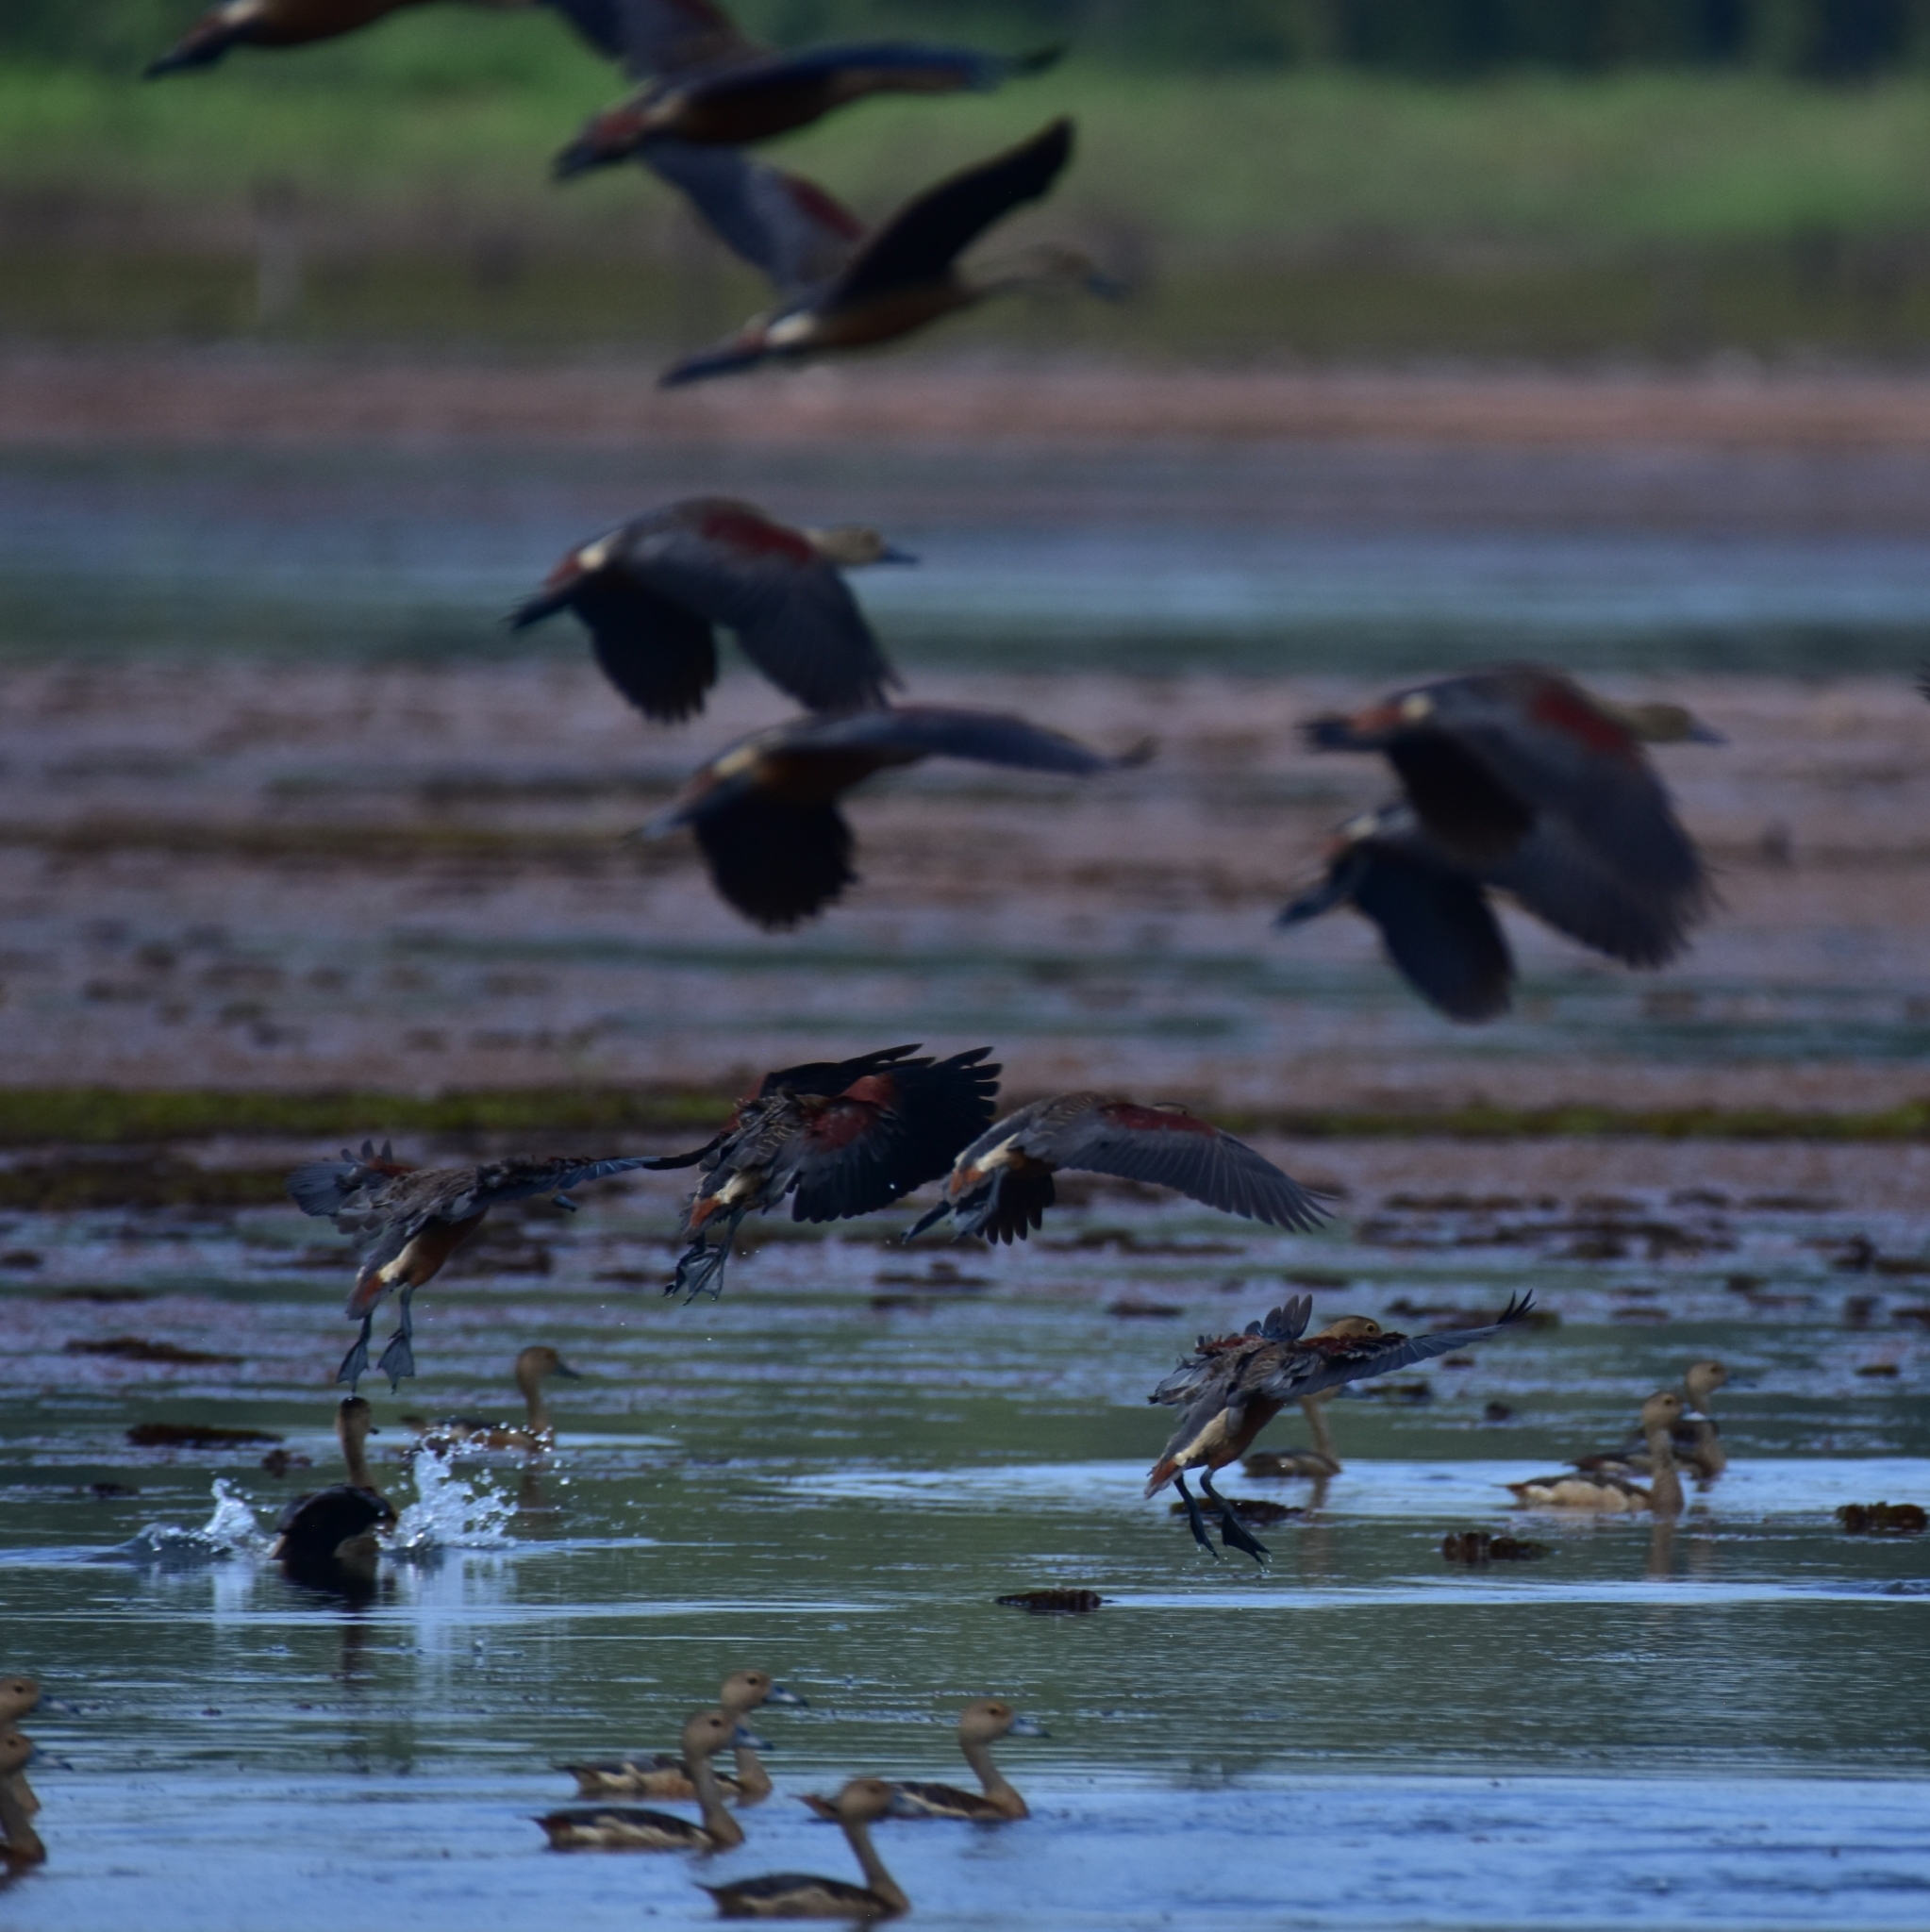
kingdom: Animalia
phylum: Chordata
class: Aves
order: Anseriformes
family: Anatidae
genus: Dendrocygna
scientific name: Dendrocygna javanica
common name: Lesser whistling-duck
